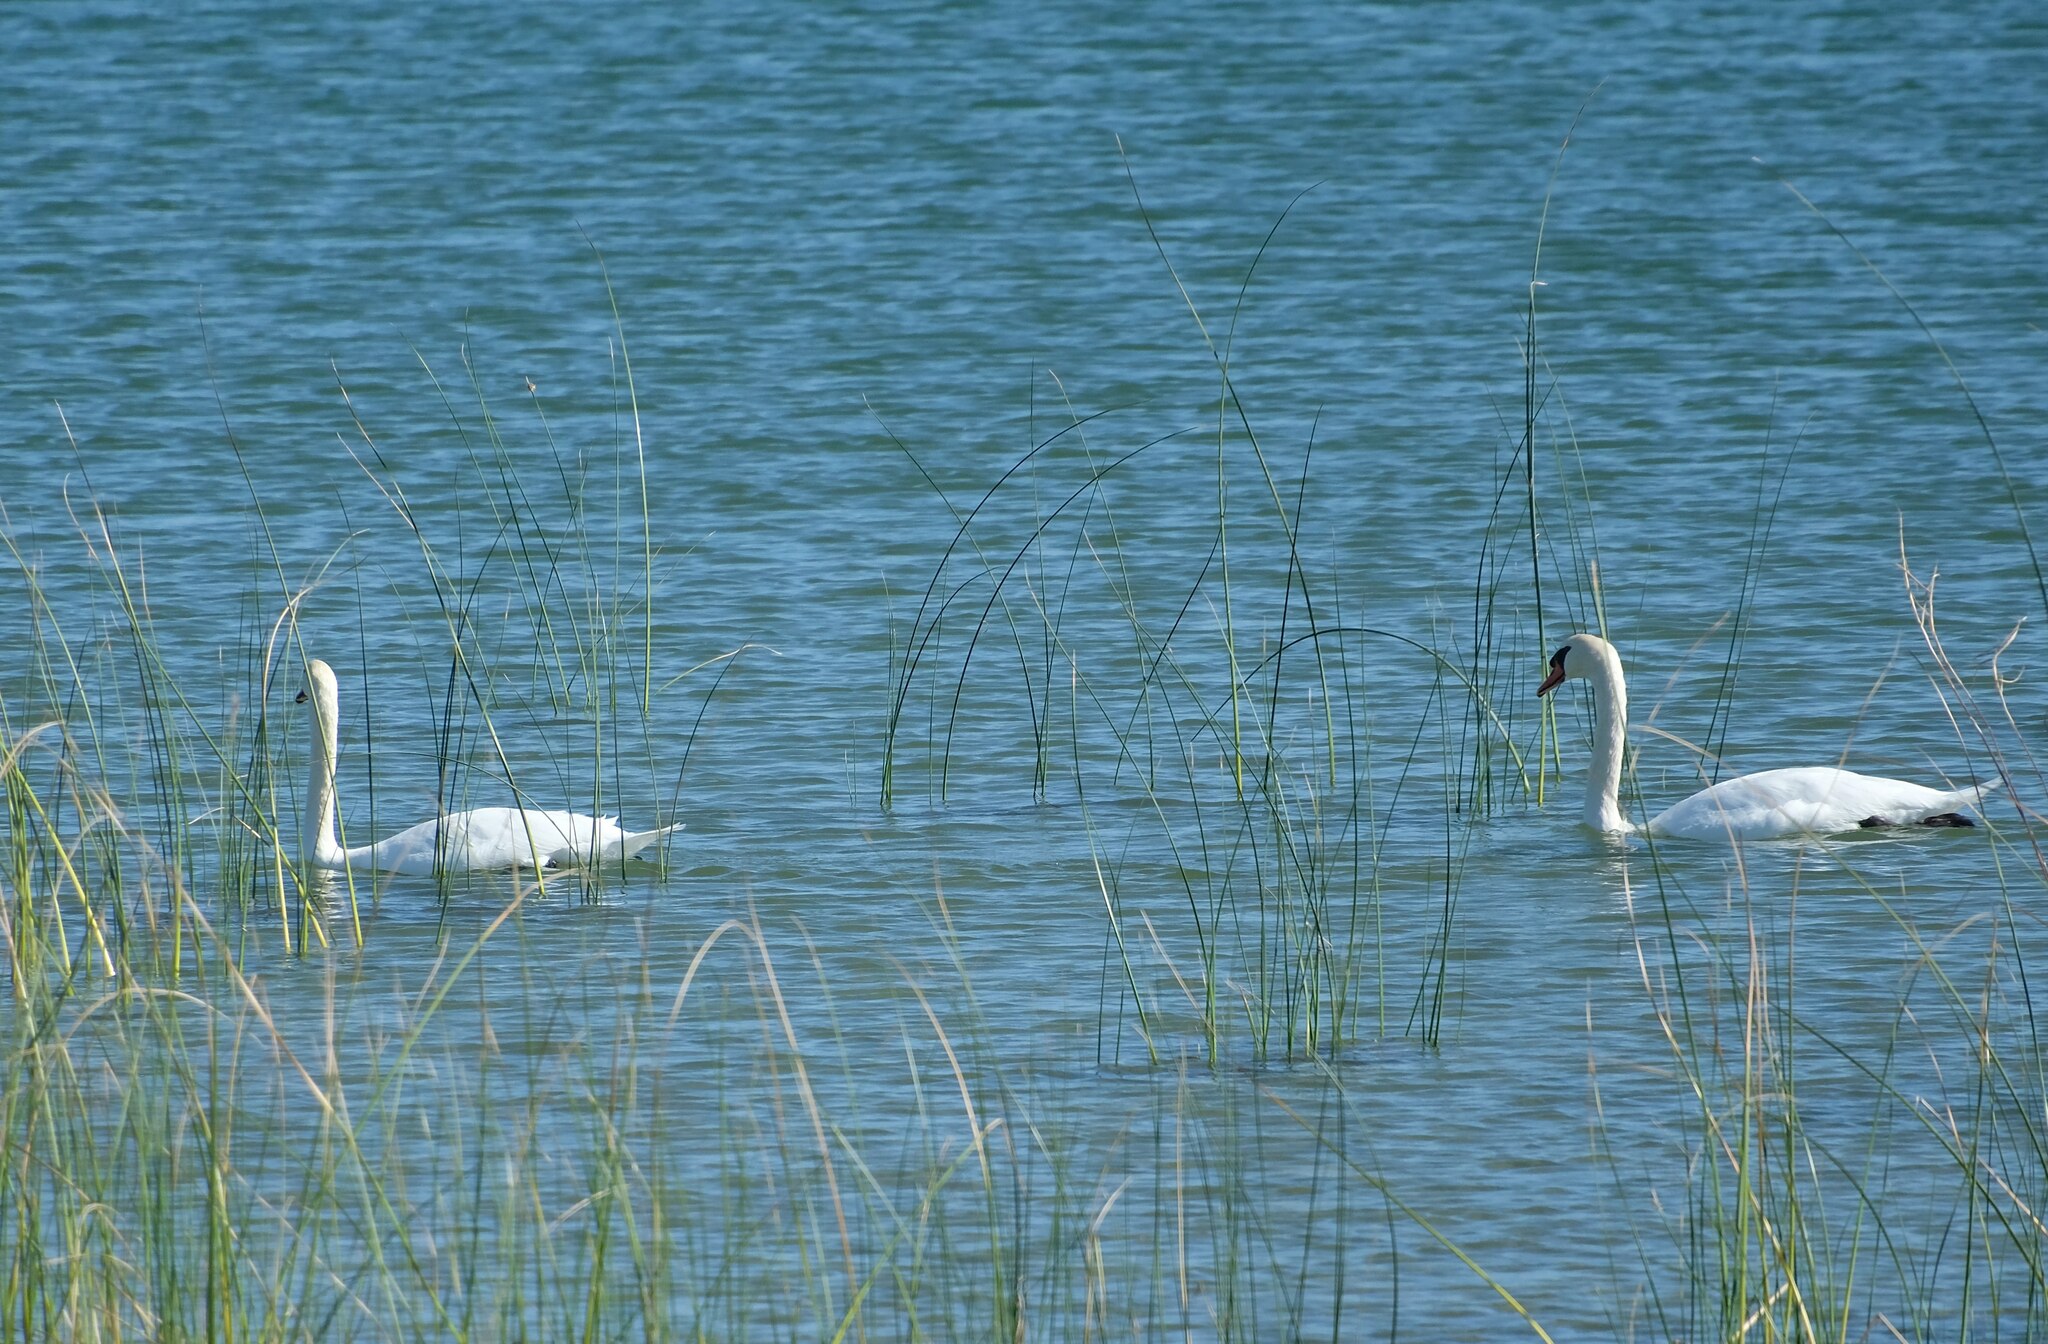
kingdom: Animalia
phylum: Chordata
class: Aves
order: Anseriformes
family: Anatidae
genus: Cygnus
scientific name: Cygnus olor
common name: Mute swan
